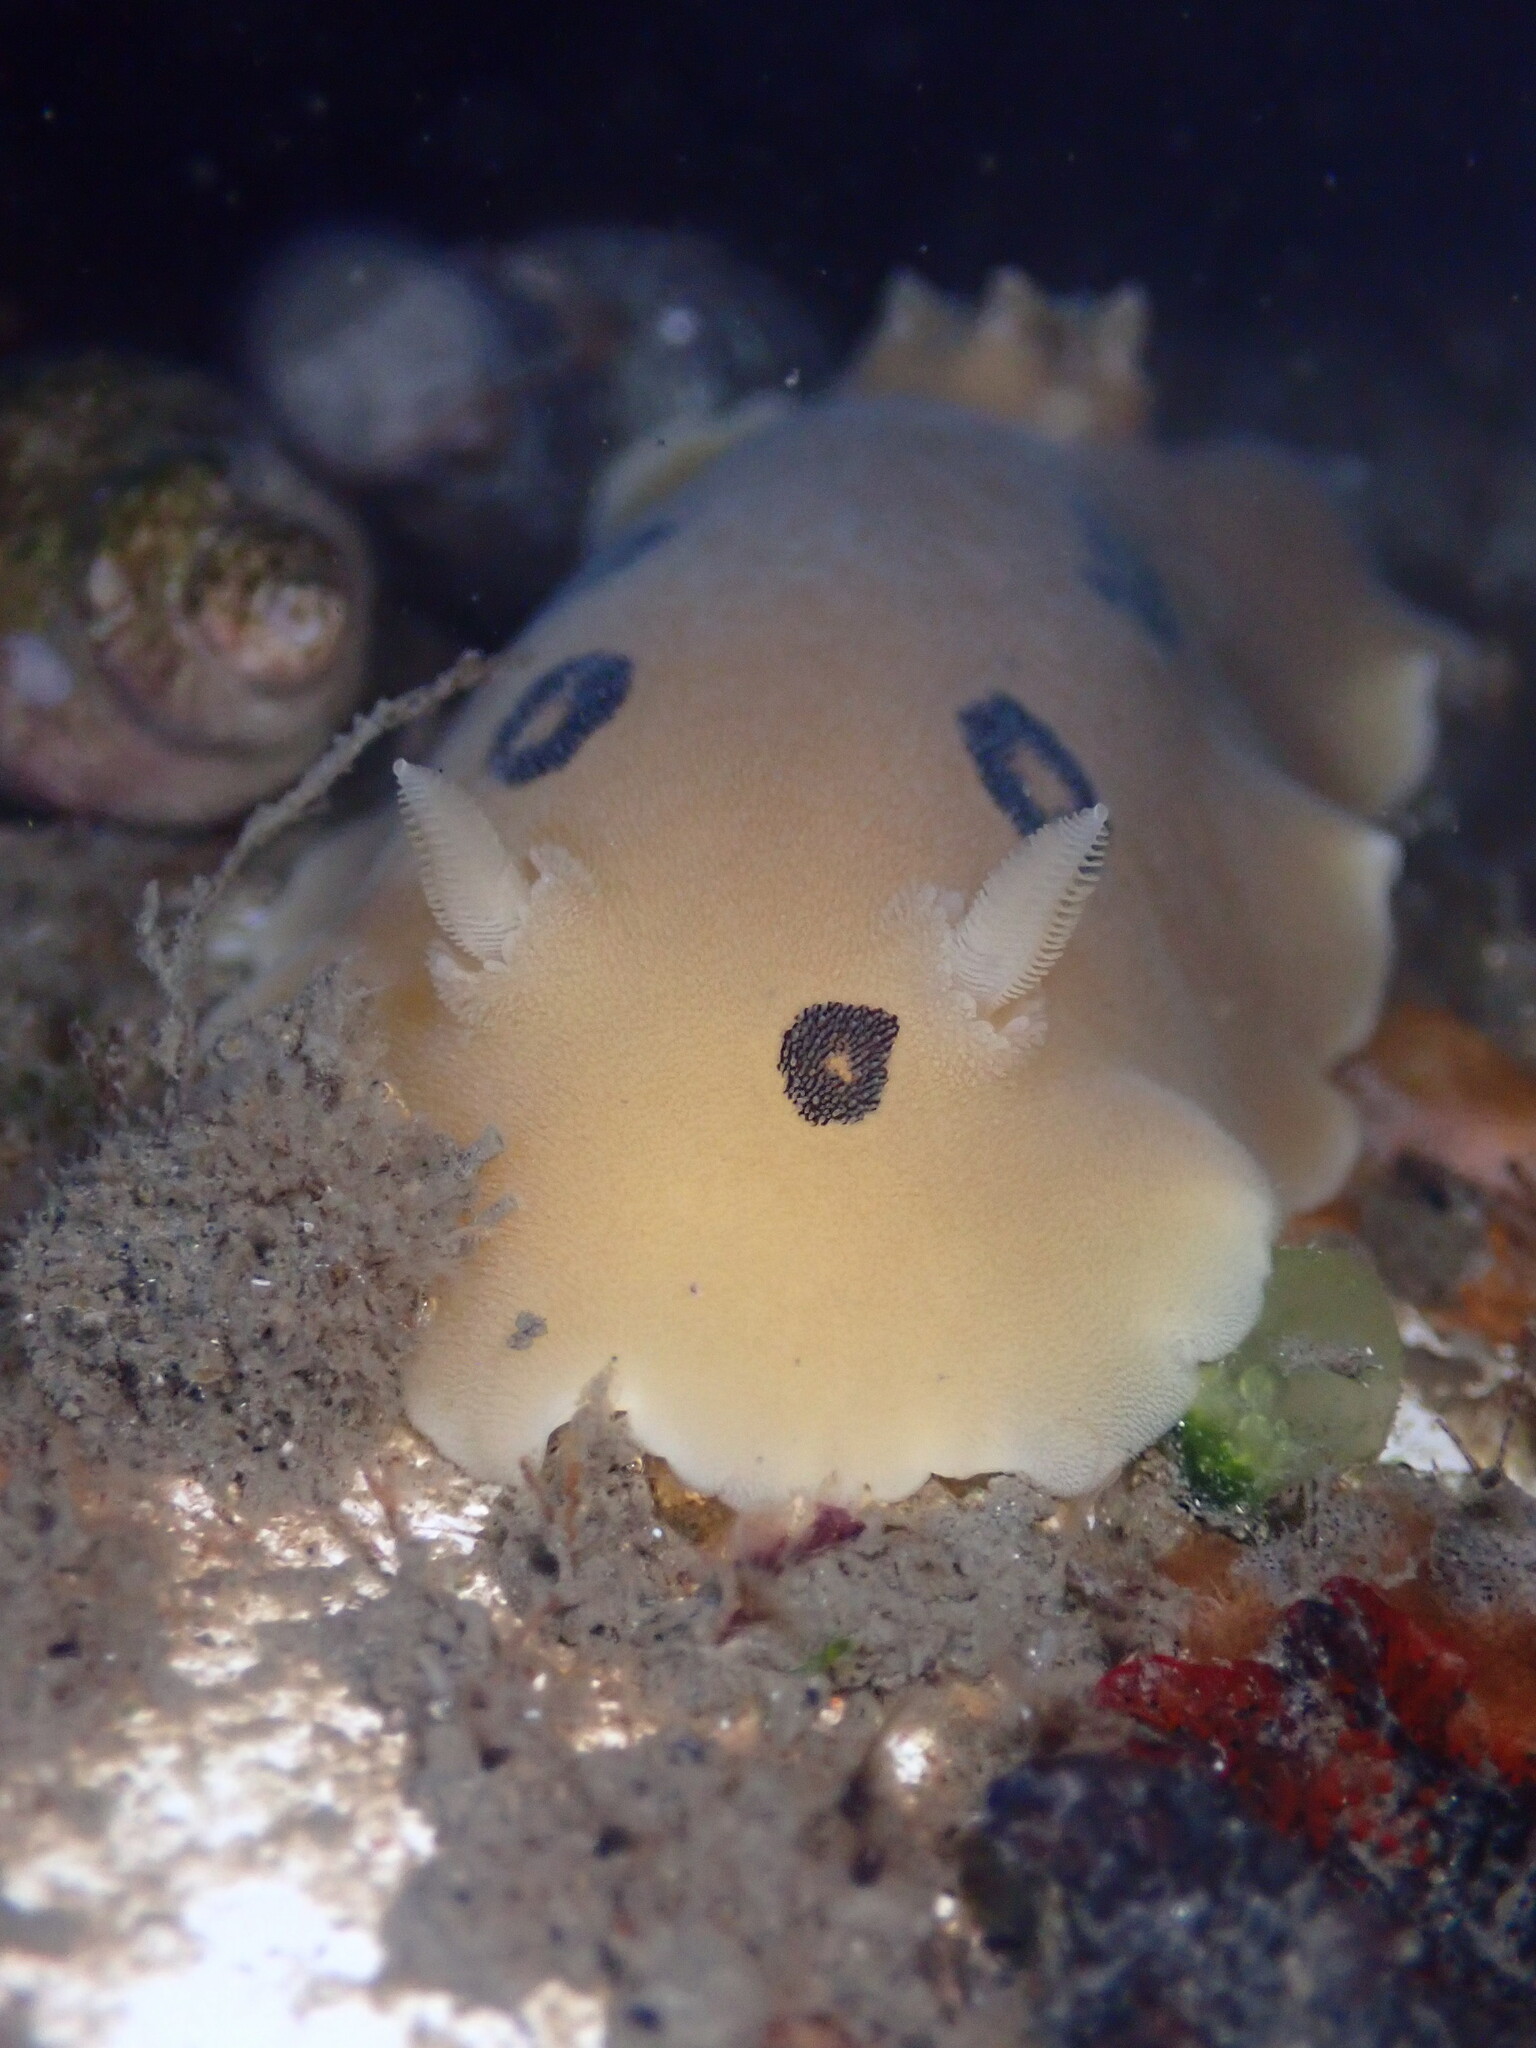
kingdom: Animalia
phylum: Mollusca
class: Gastropoda
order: Nudibranchia
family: Discodorididae
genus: Diaulula
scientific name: Diaulula sandiegensis
